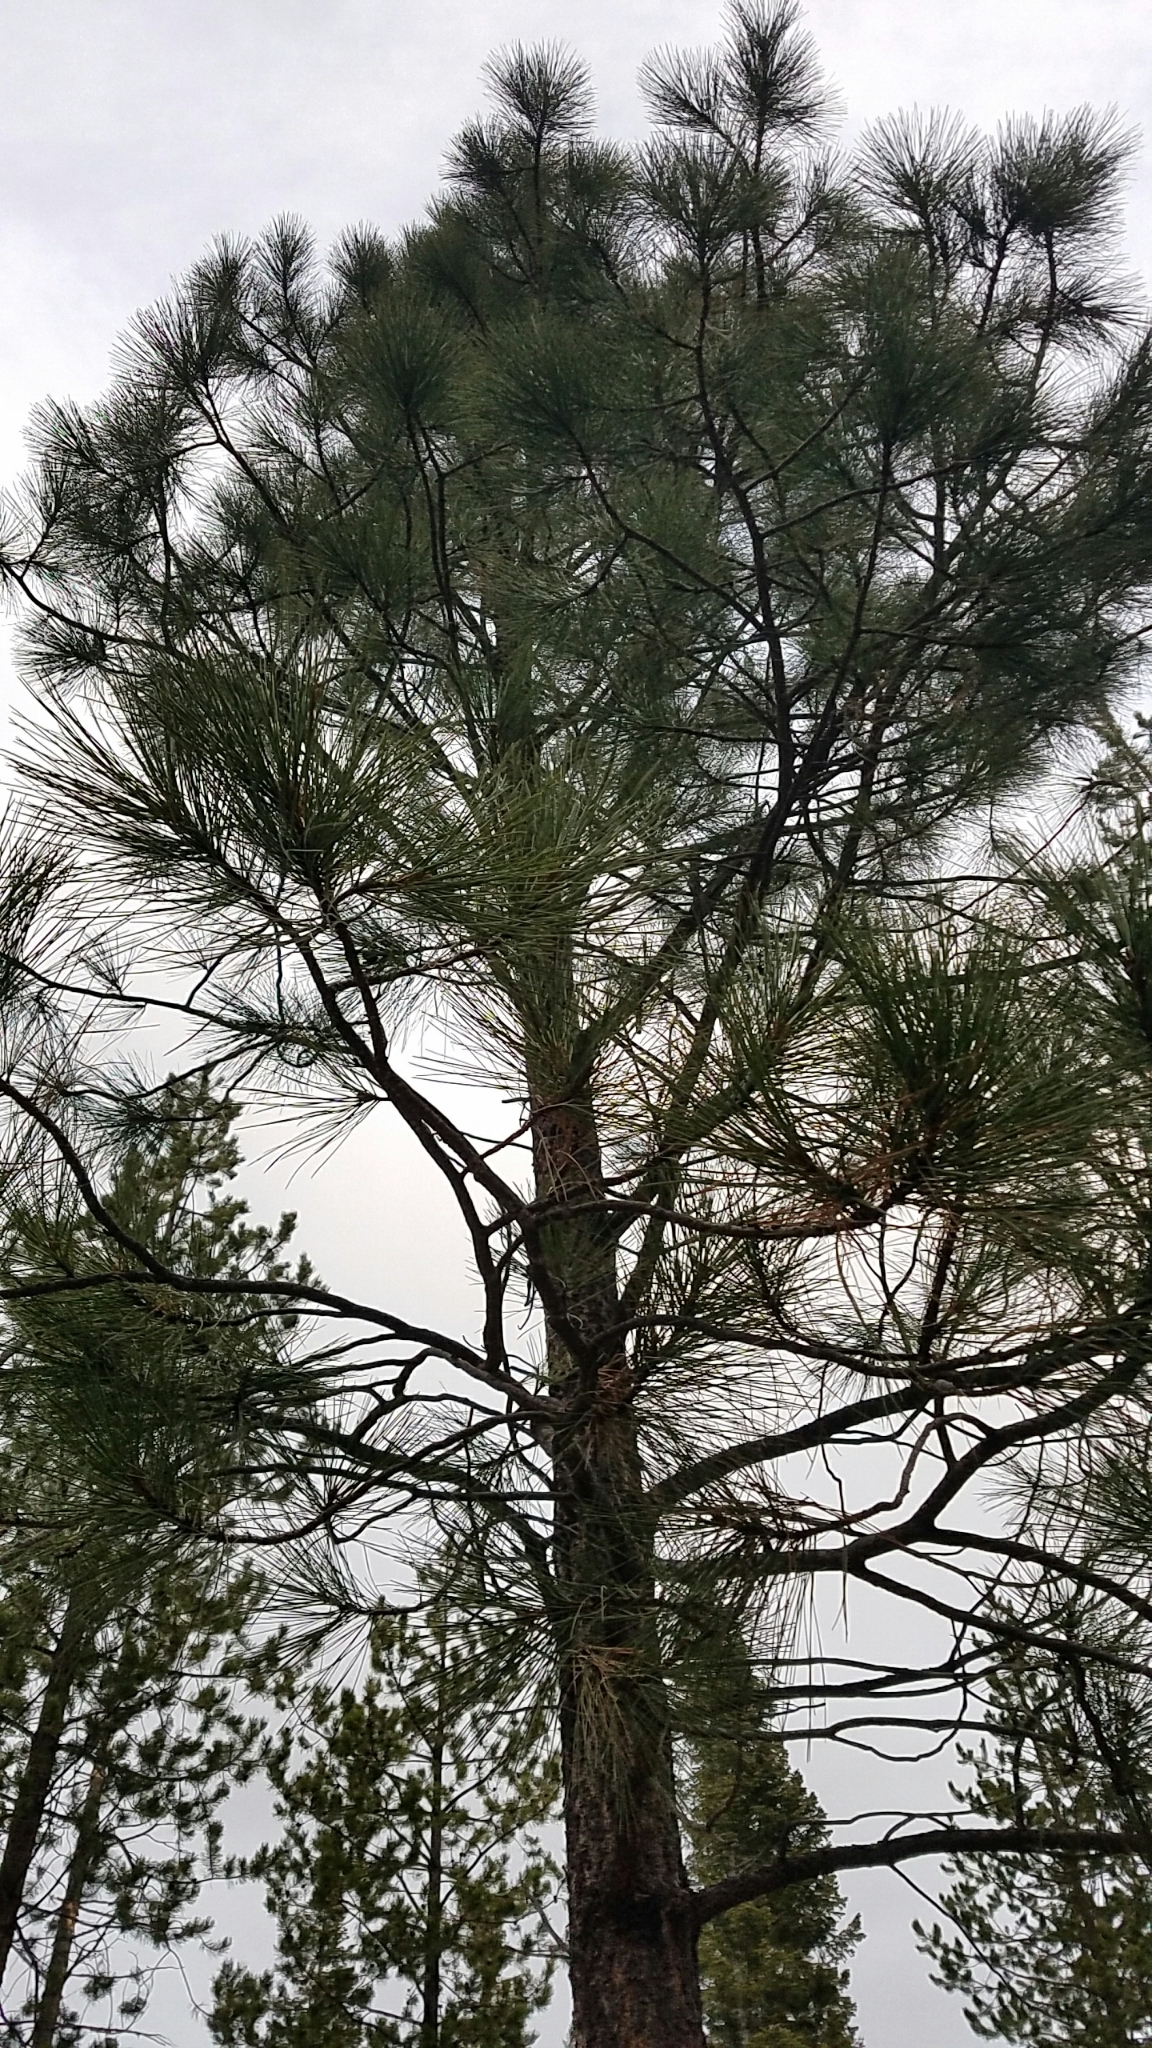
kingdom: Plantae
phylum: Tracheophyta
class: Pinopsida
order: Pinales
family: Pinaceae
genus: Pinus
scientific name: Pinus ponderosa
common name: Western yellow-pine
